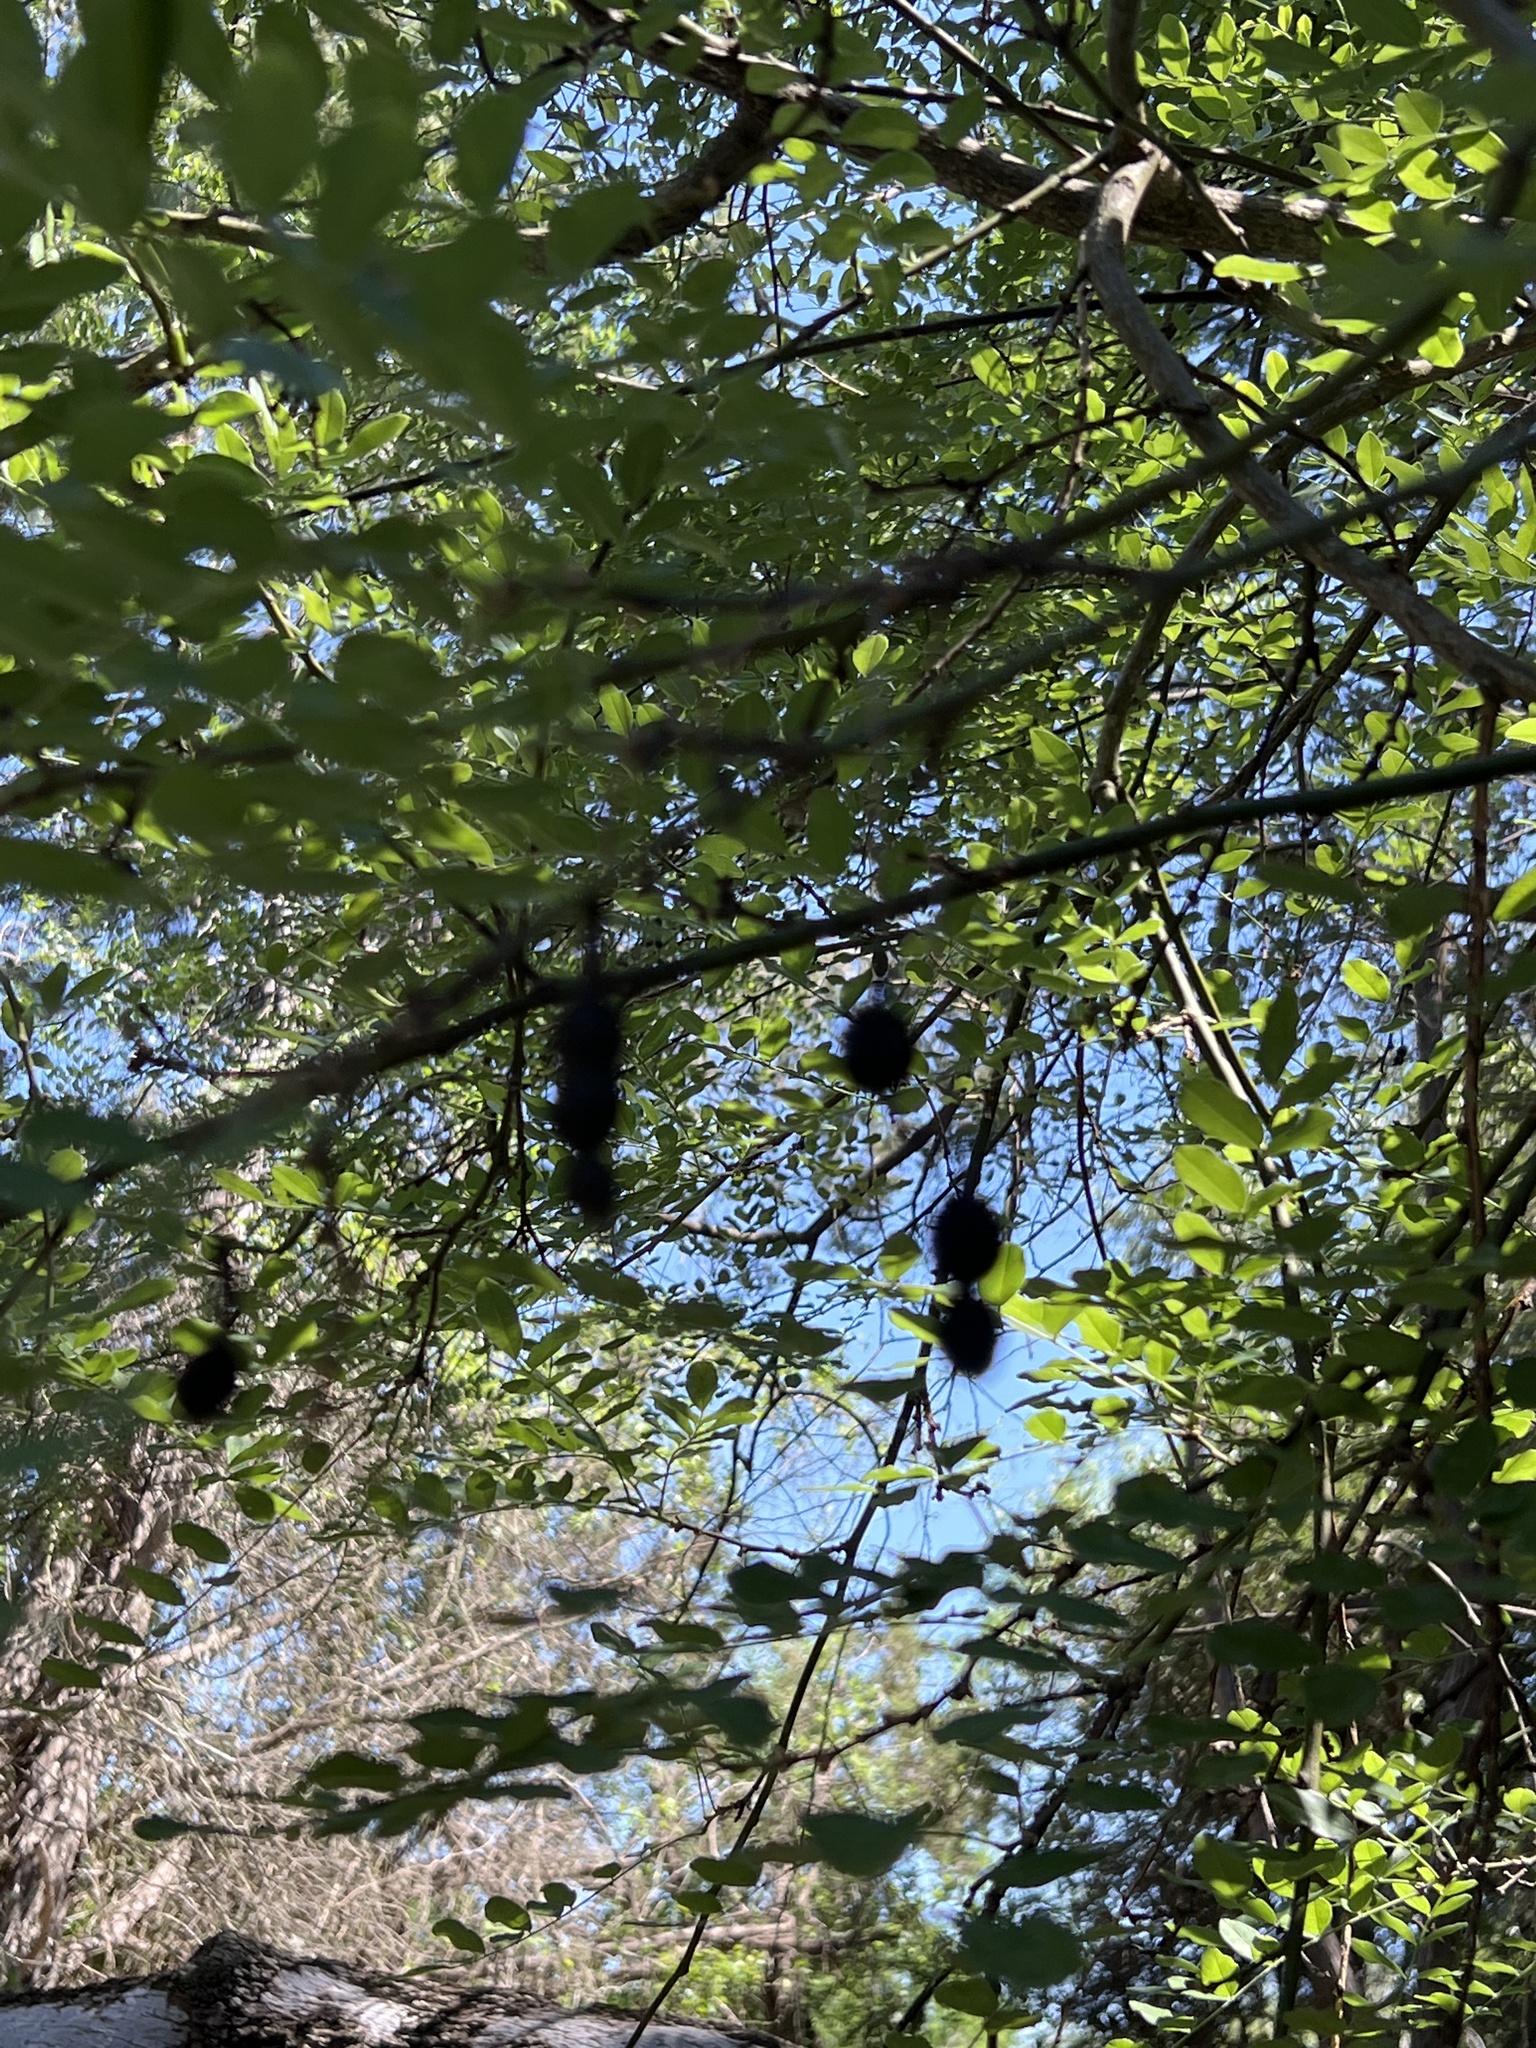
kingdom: Plantae
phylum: Tracheophyta
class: Magnoliopsida
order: Fabales
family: Fabaceae
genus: Styphnolobium
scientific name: Styphnolobium affine
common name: Texas sophora
